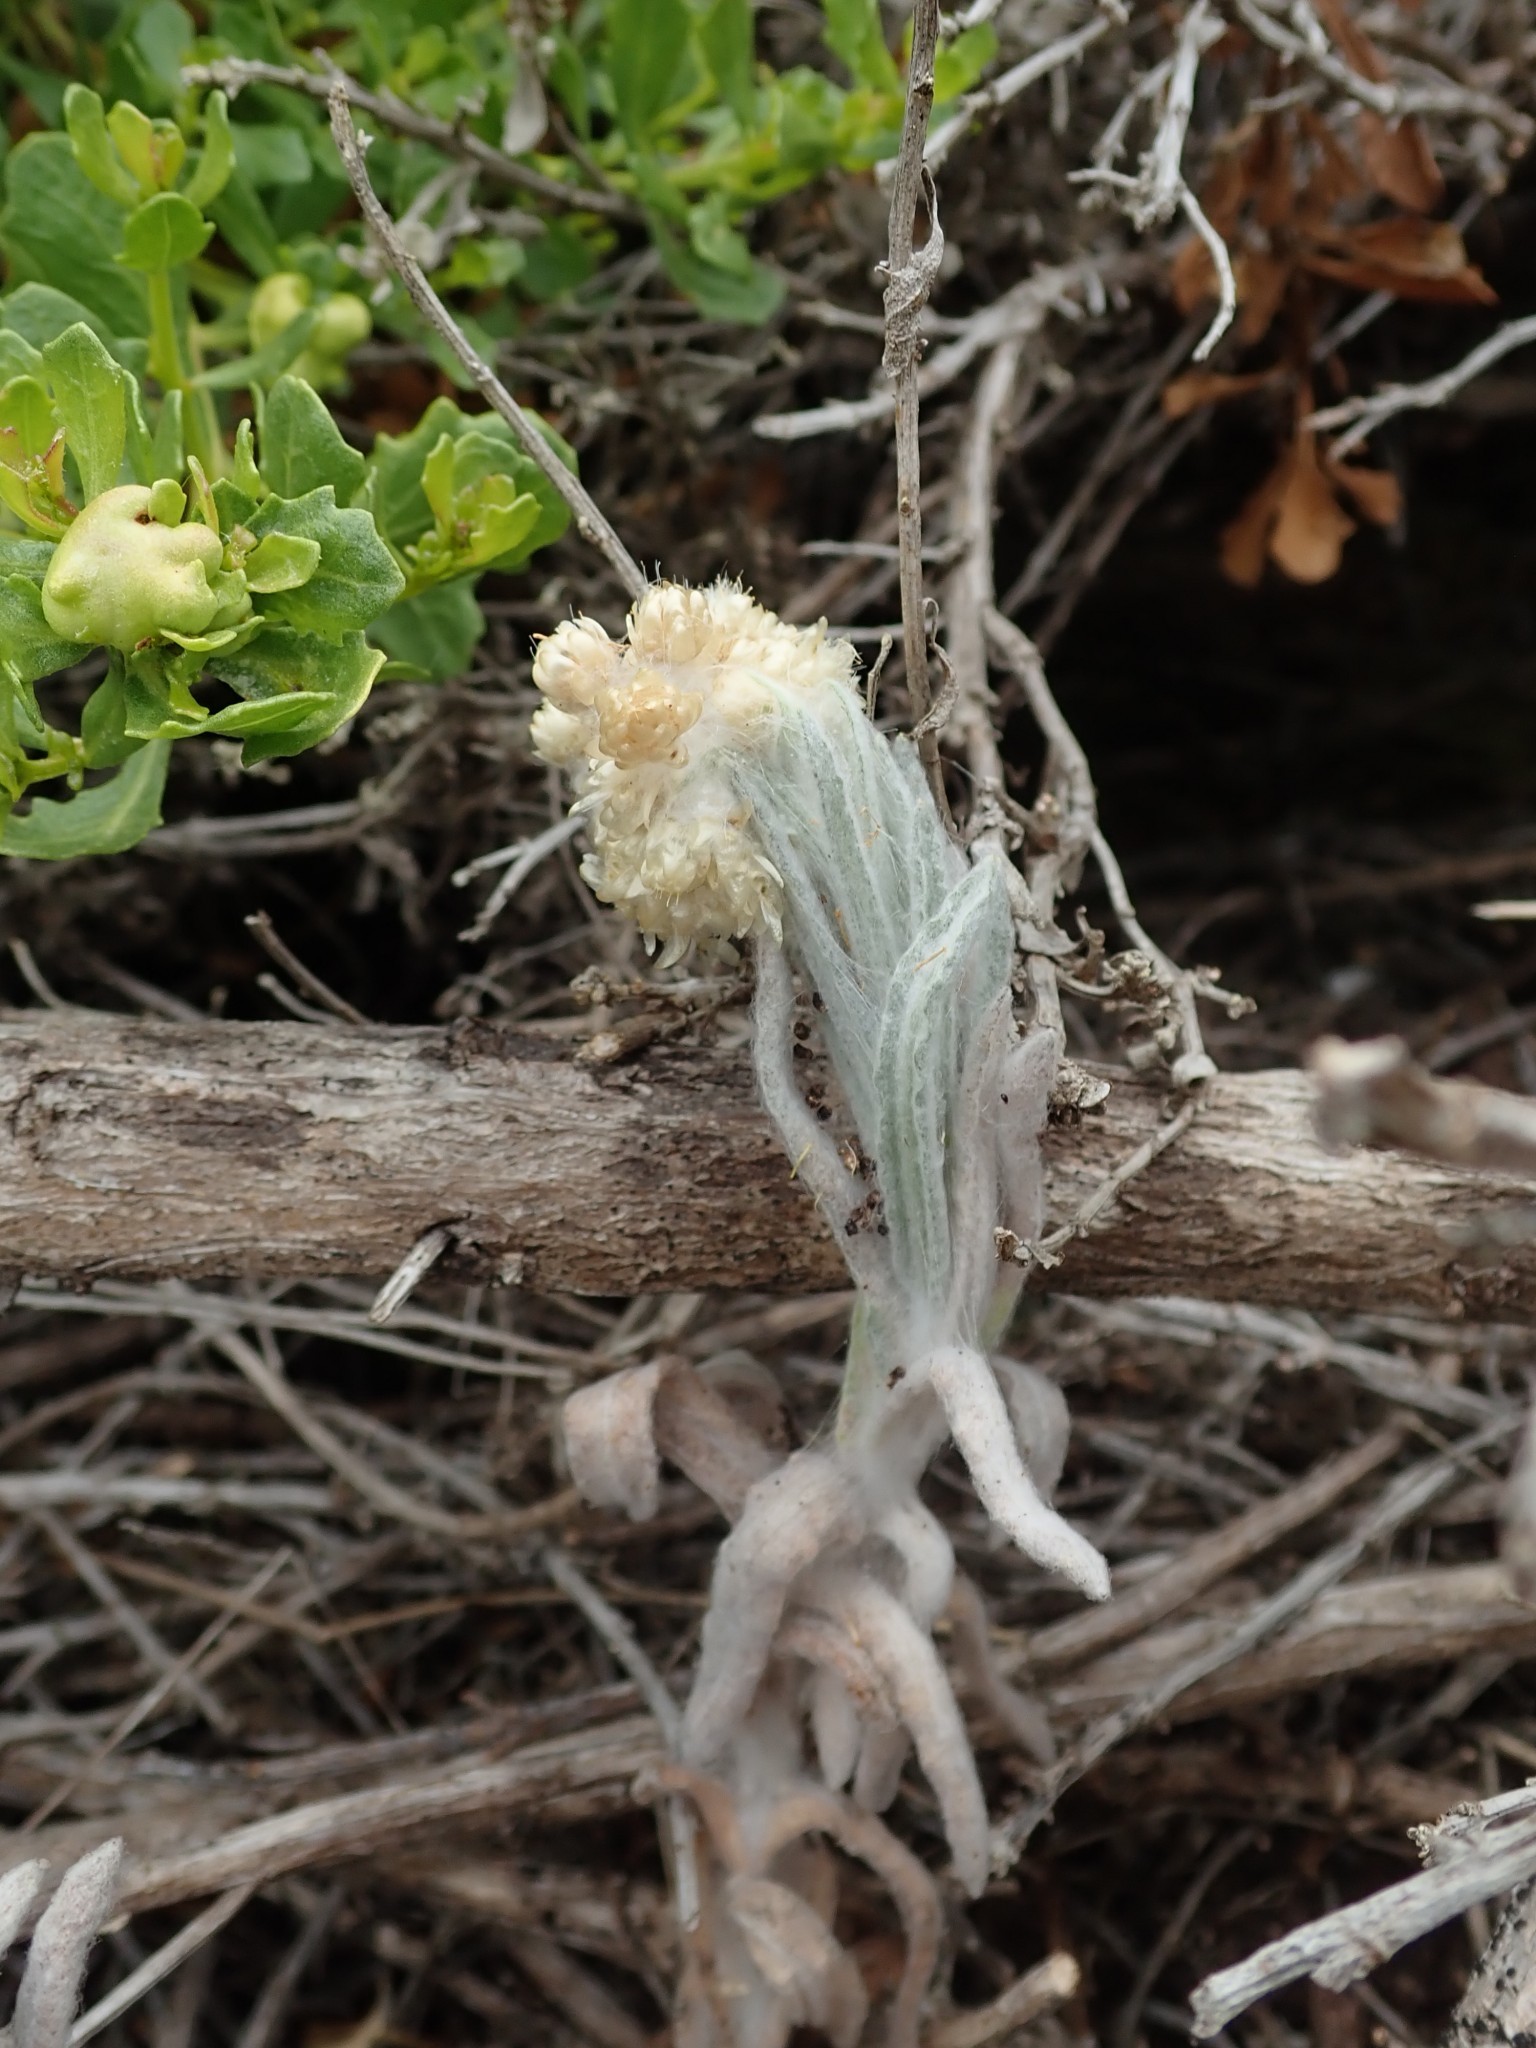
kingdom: Plantae
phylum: Tracheophyta
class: Magnoliopsida
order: Asterales
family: Asteraceae
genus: Pseudognaphalium
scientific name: Pseudognaphalium stramineum
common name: Cotton-batting-plant
